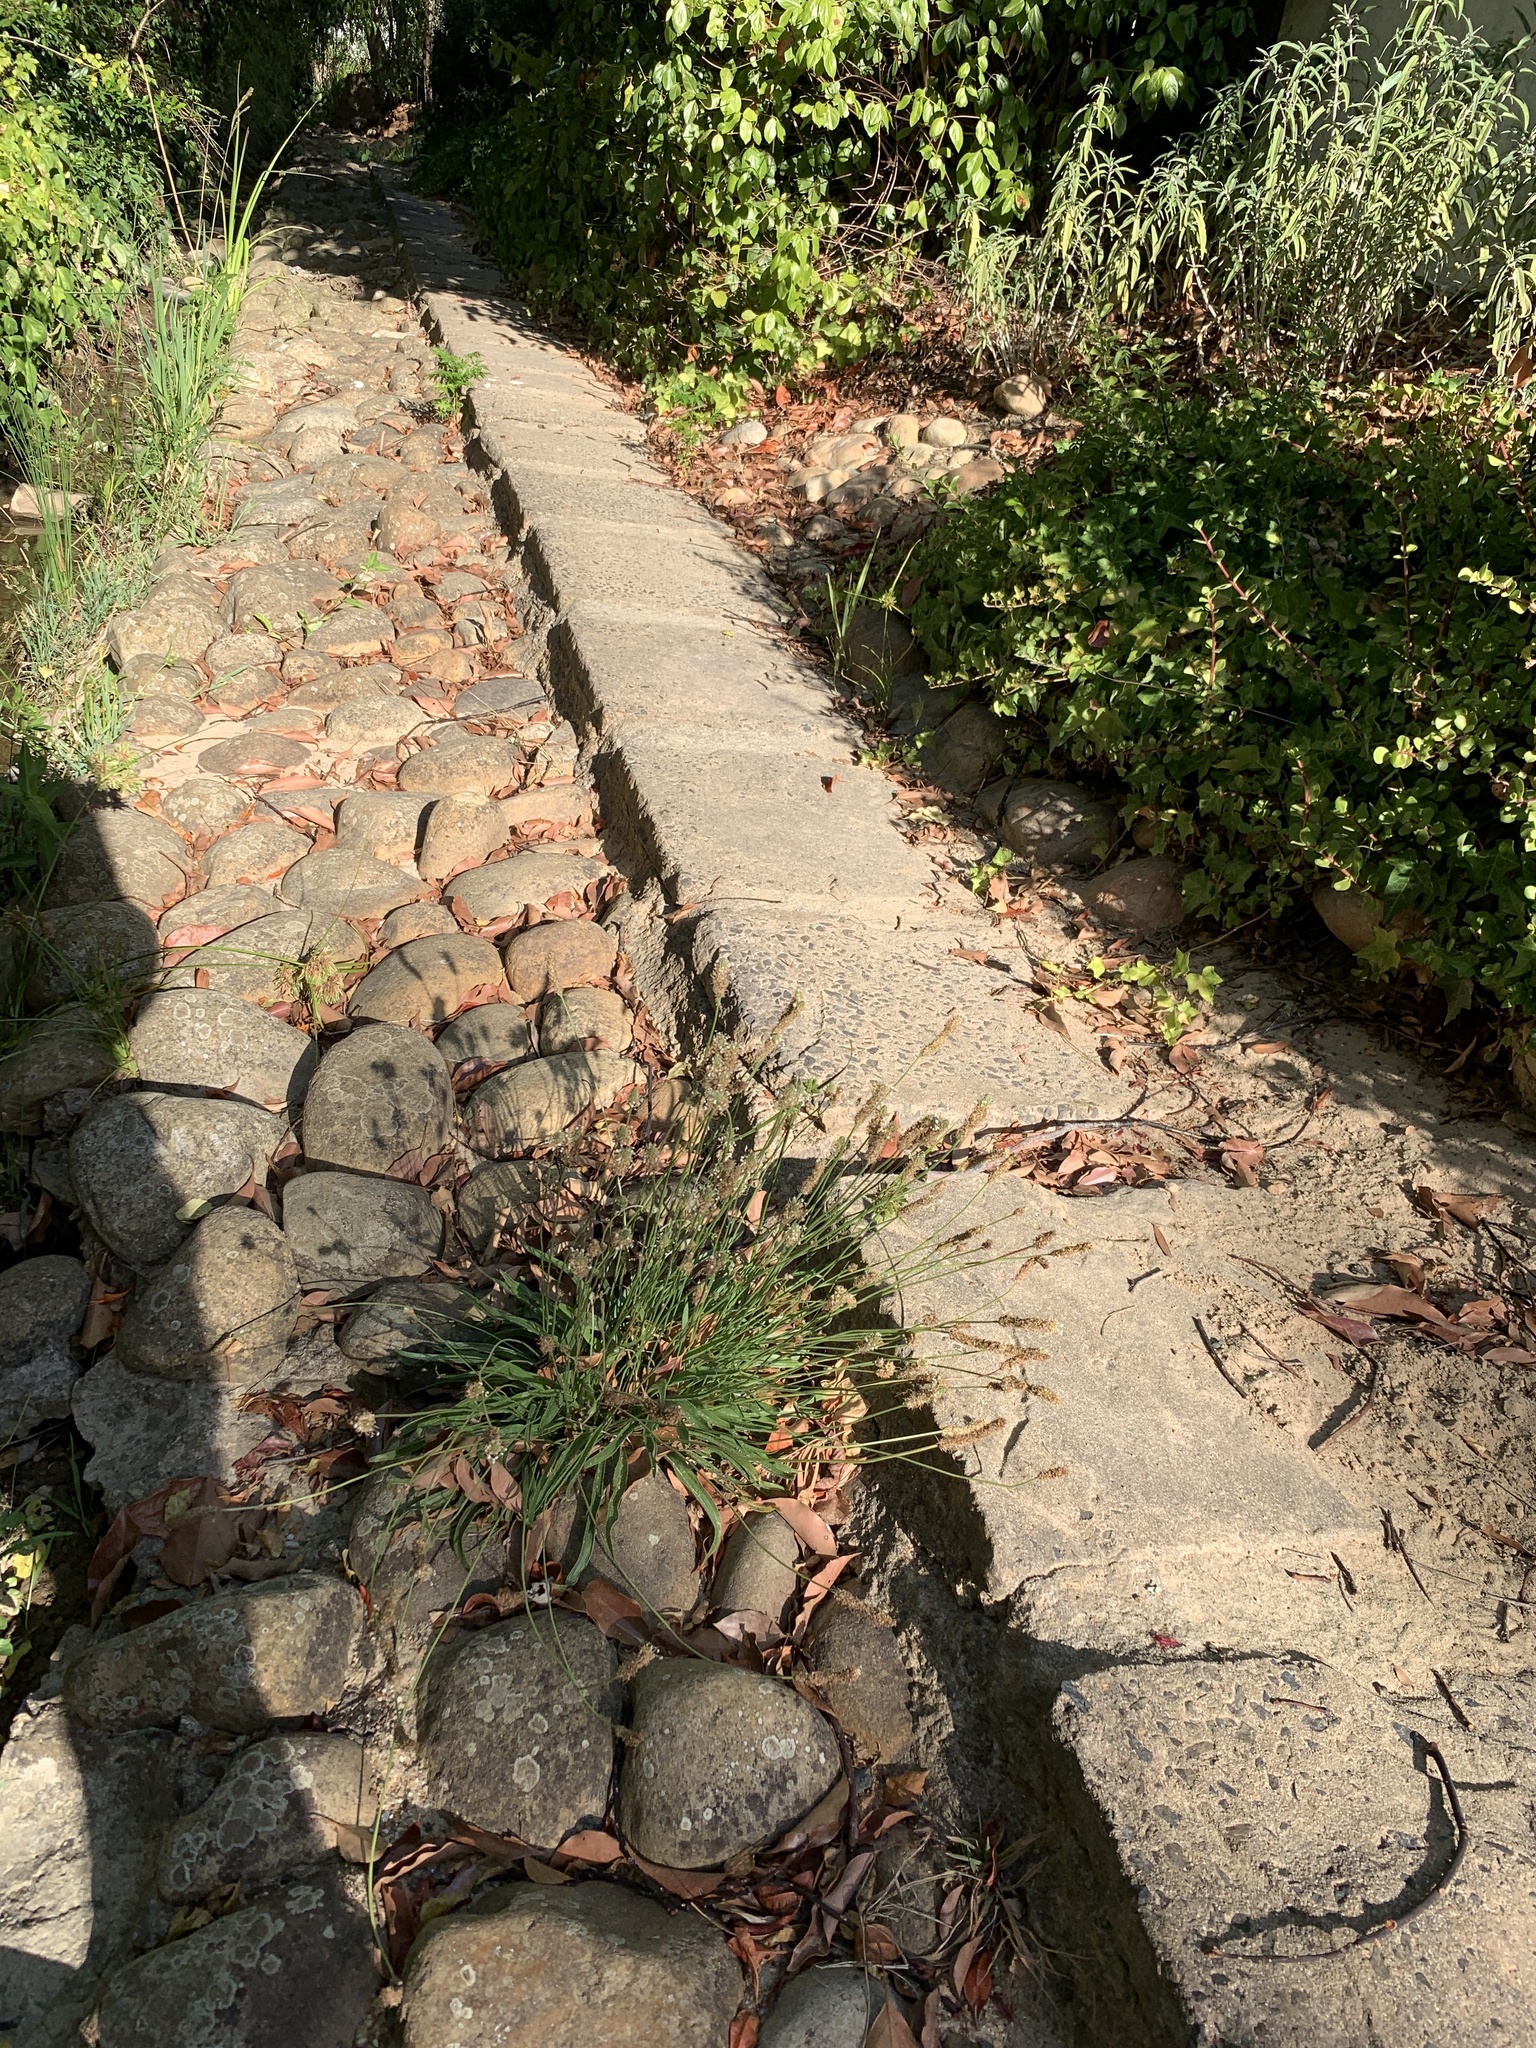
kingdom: Plantae
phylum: Tracheophyta
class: Magnoliopsida
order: Lamiales
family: Plantaginaceae
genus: Plantago
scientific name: Plantago lanceolata
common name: Ribwort plantain
